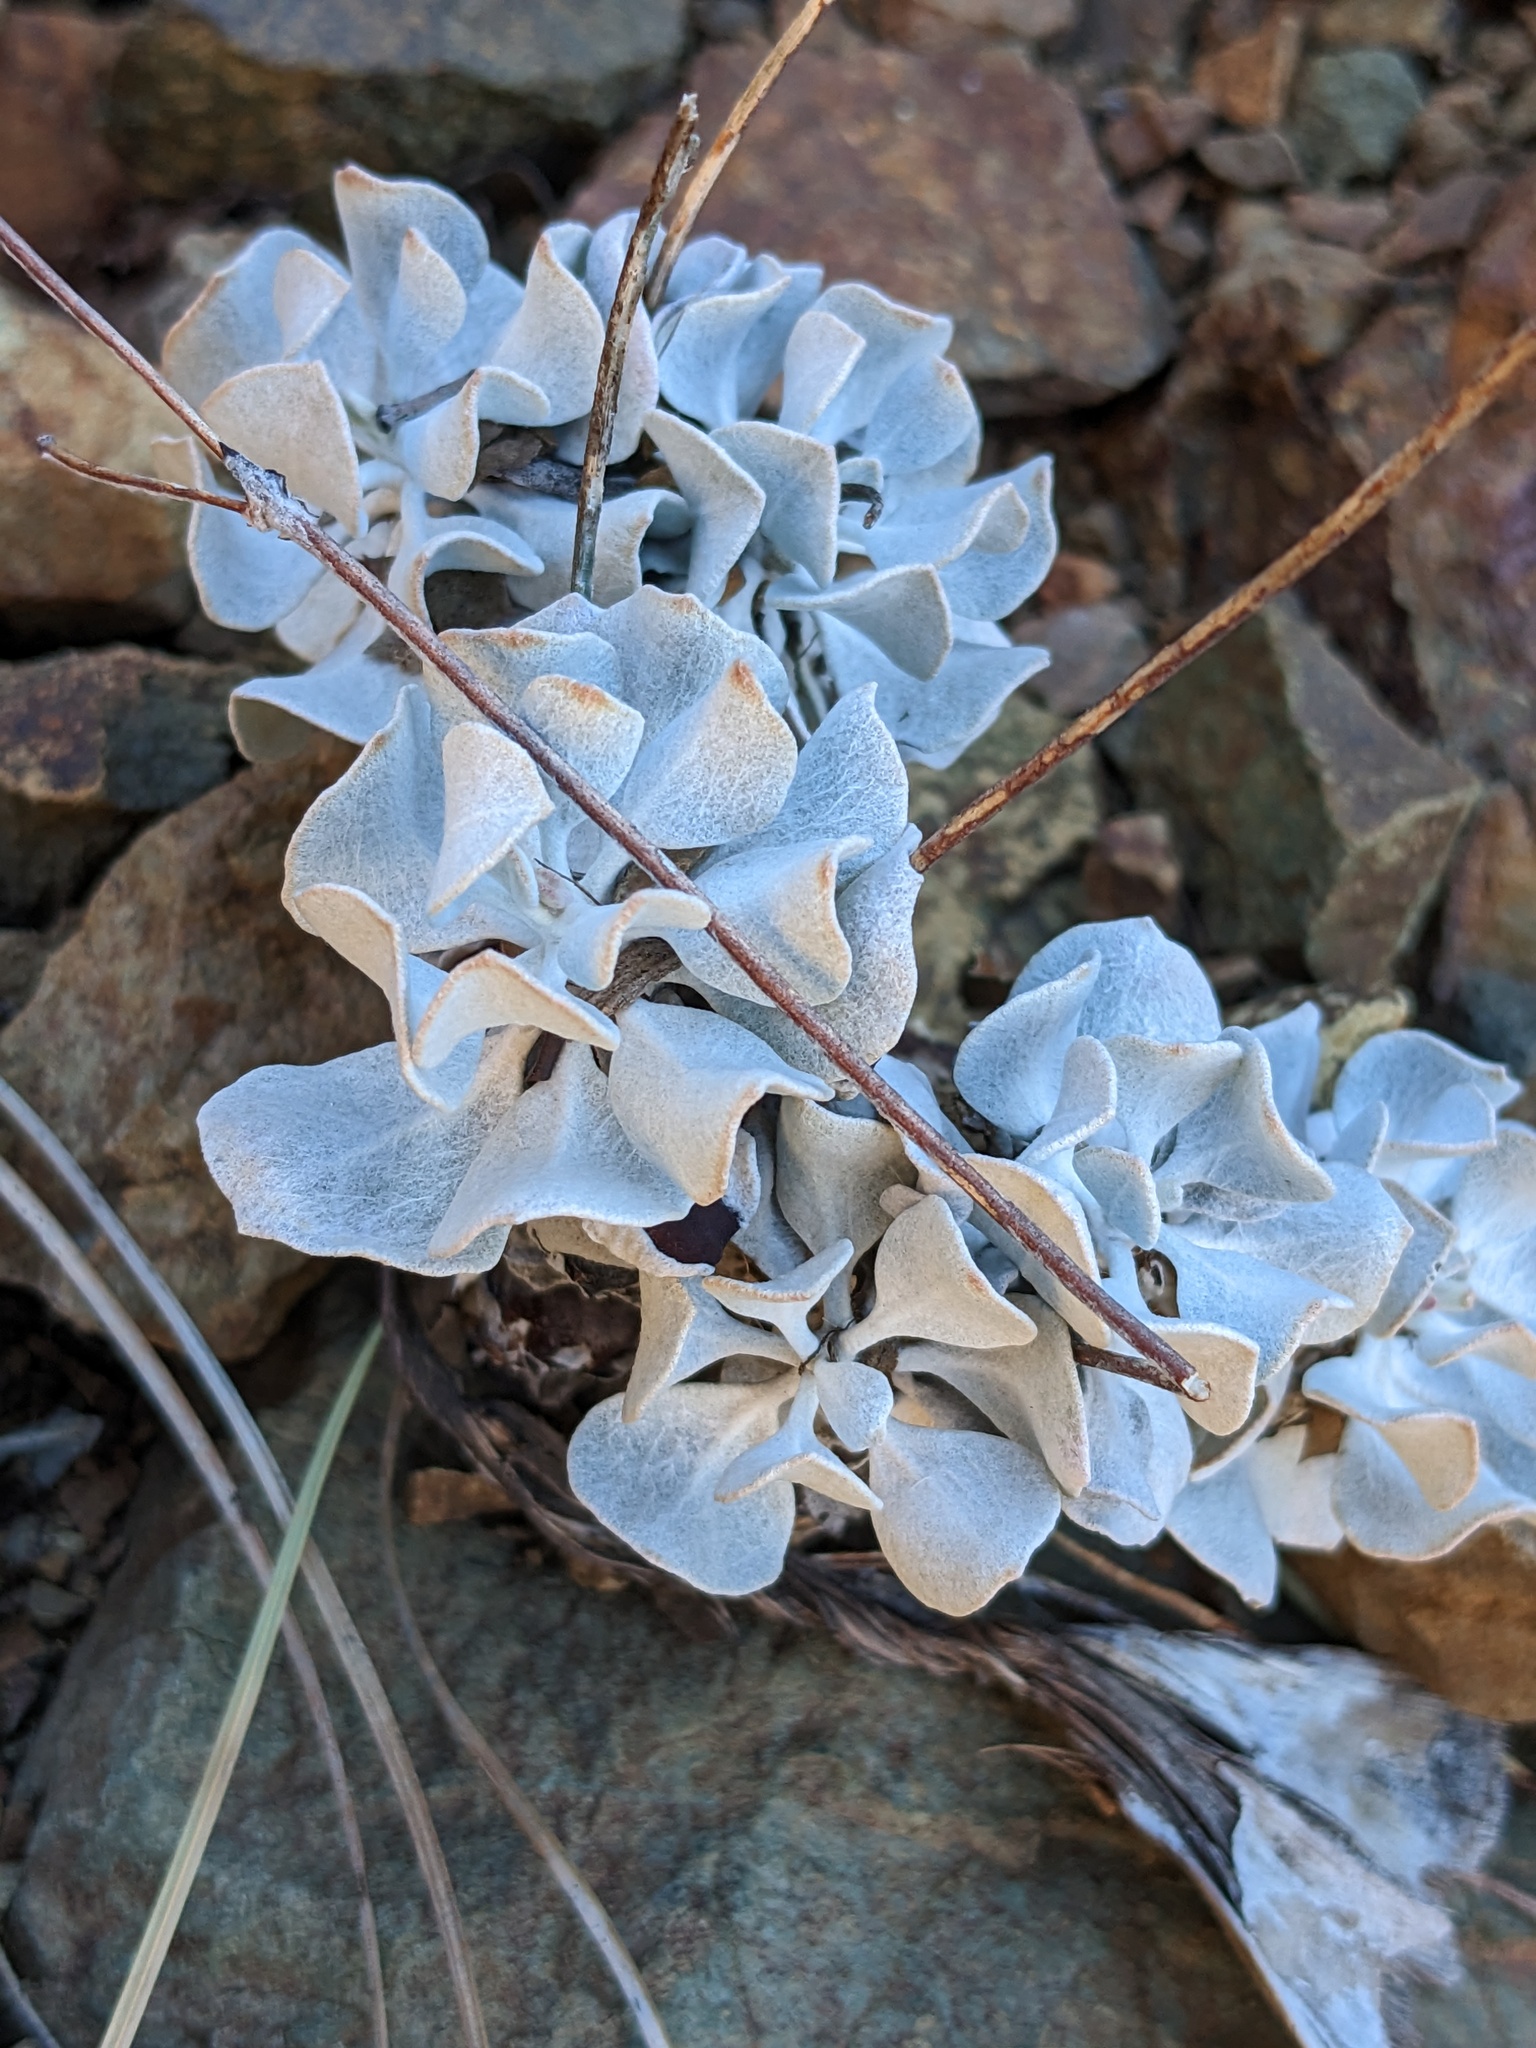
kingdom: Plantae
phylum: Tracheophyta
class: Magnoliopsida
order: Caryophyllales
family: Polygonaceae
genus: Eriogonum
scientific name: Eriogonum saxatile
